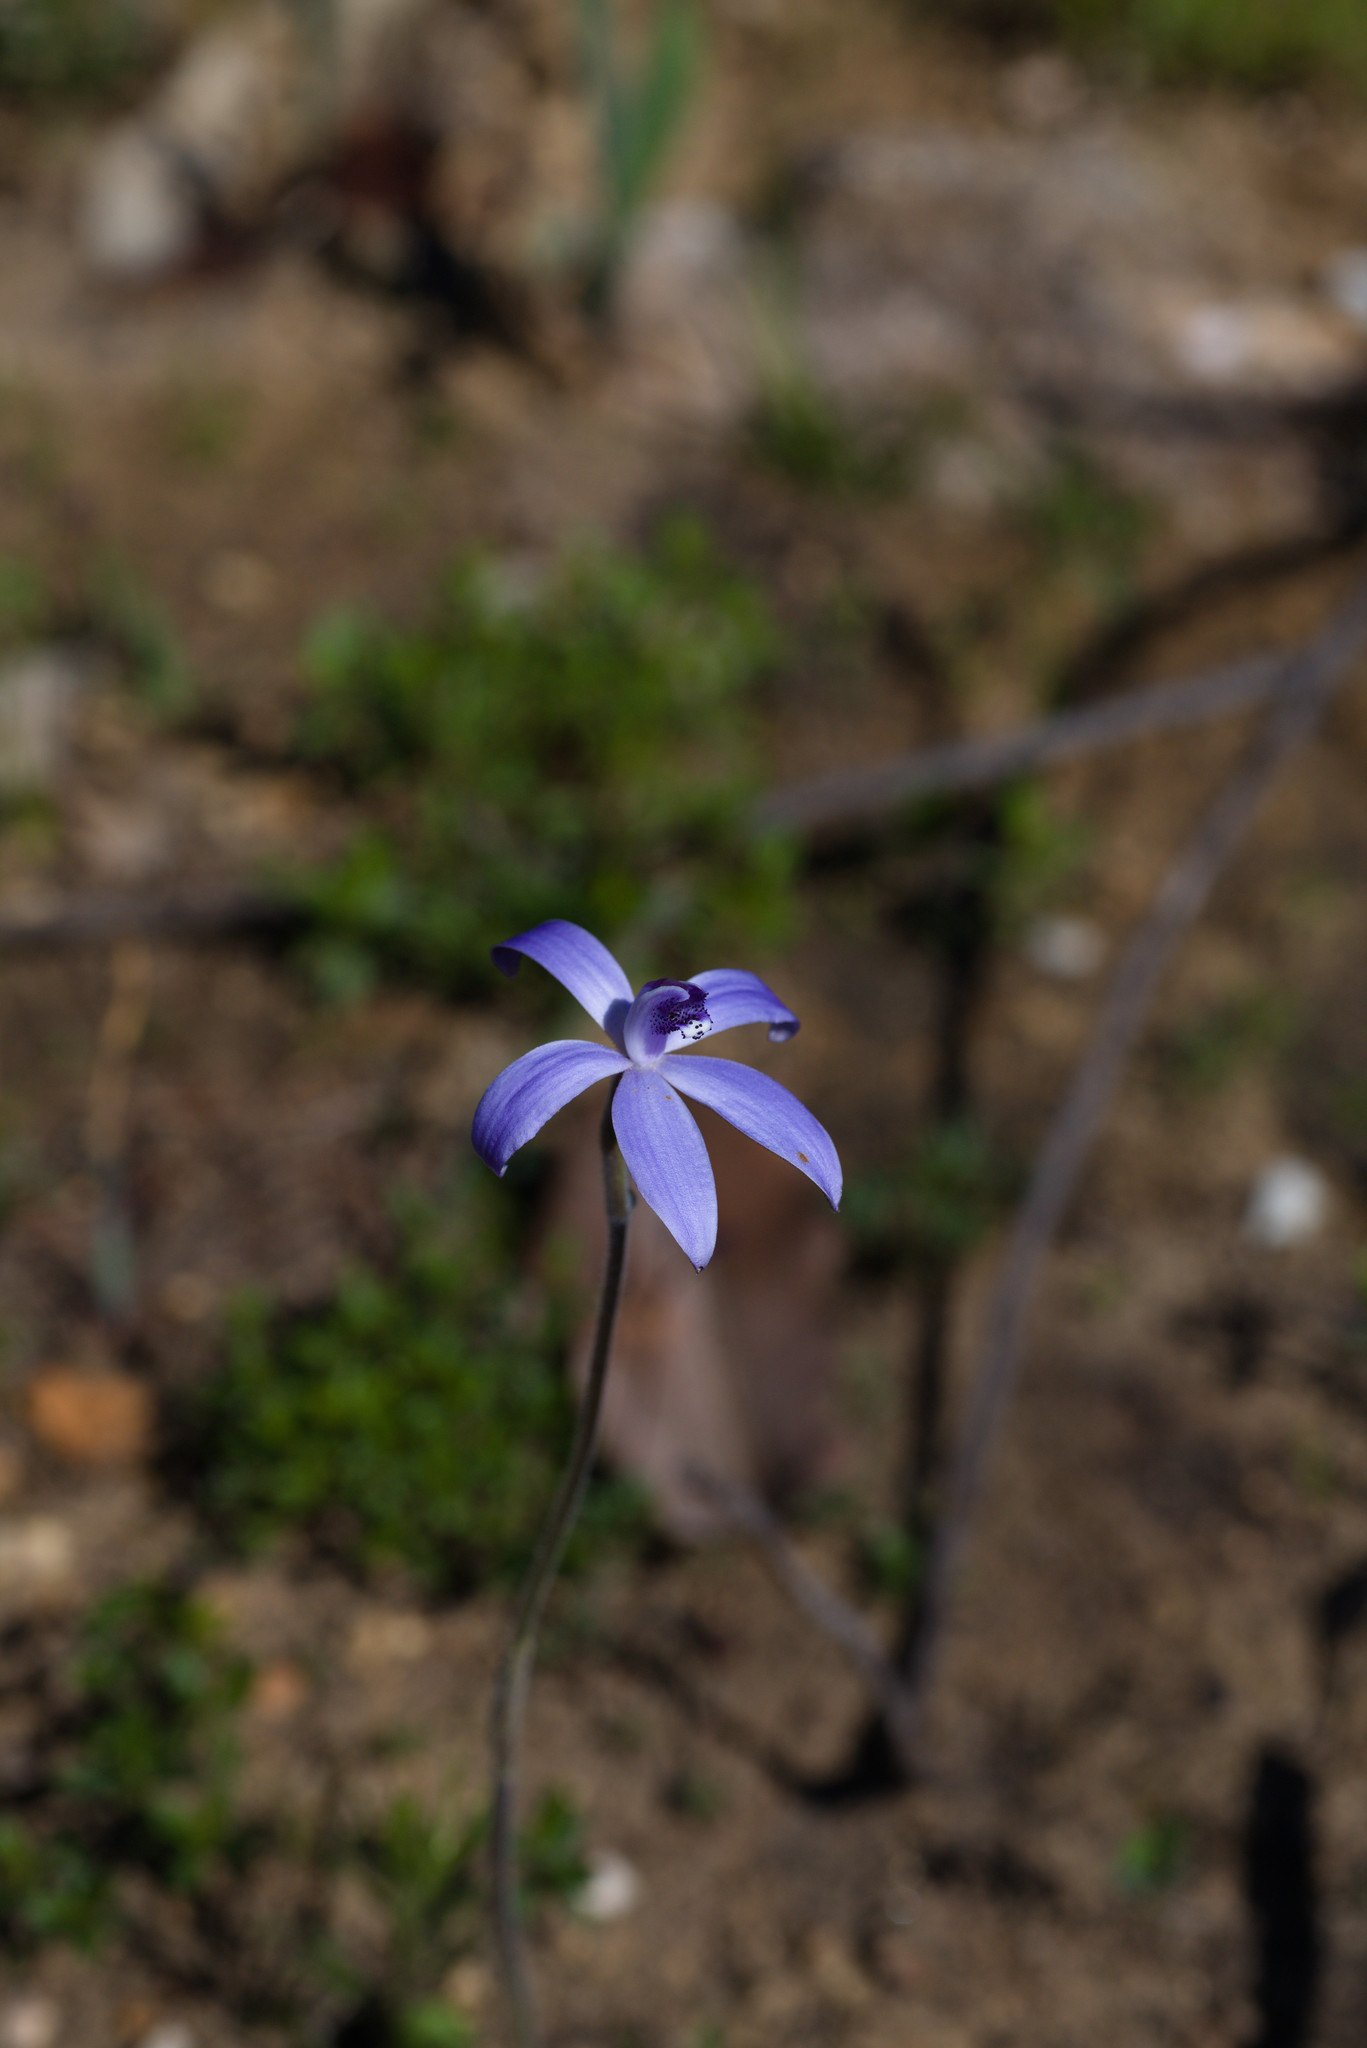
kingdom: Plantae
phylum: Tracheophyta
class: Liliopsida
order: Asparagales
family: Orchidaceae
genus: Caladenia
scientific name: Caladenia sericea
